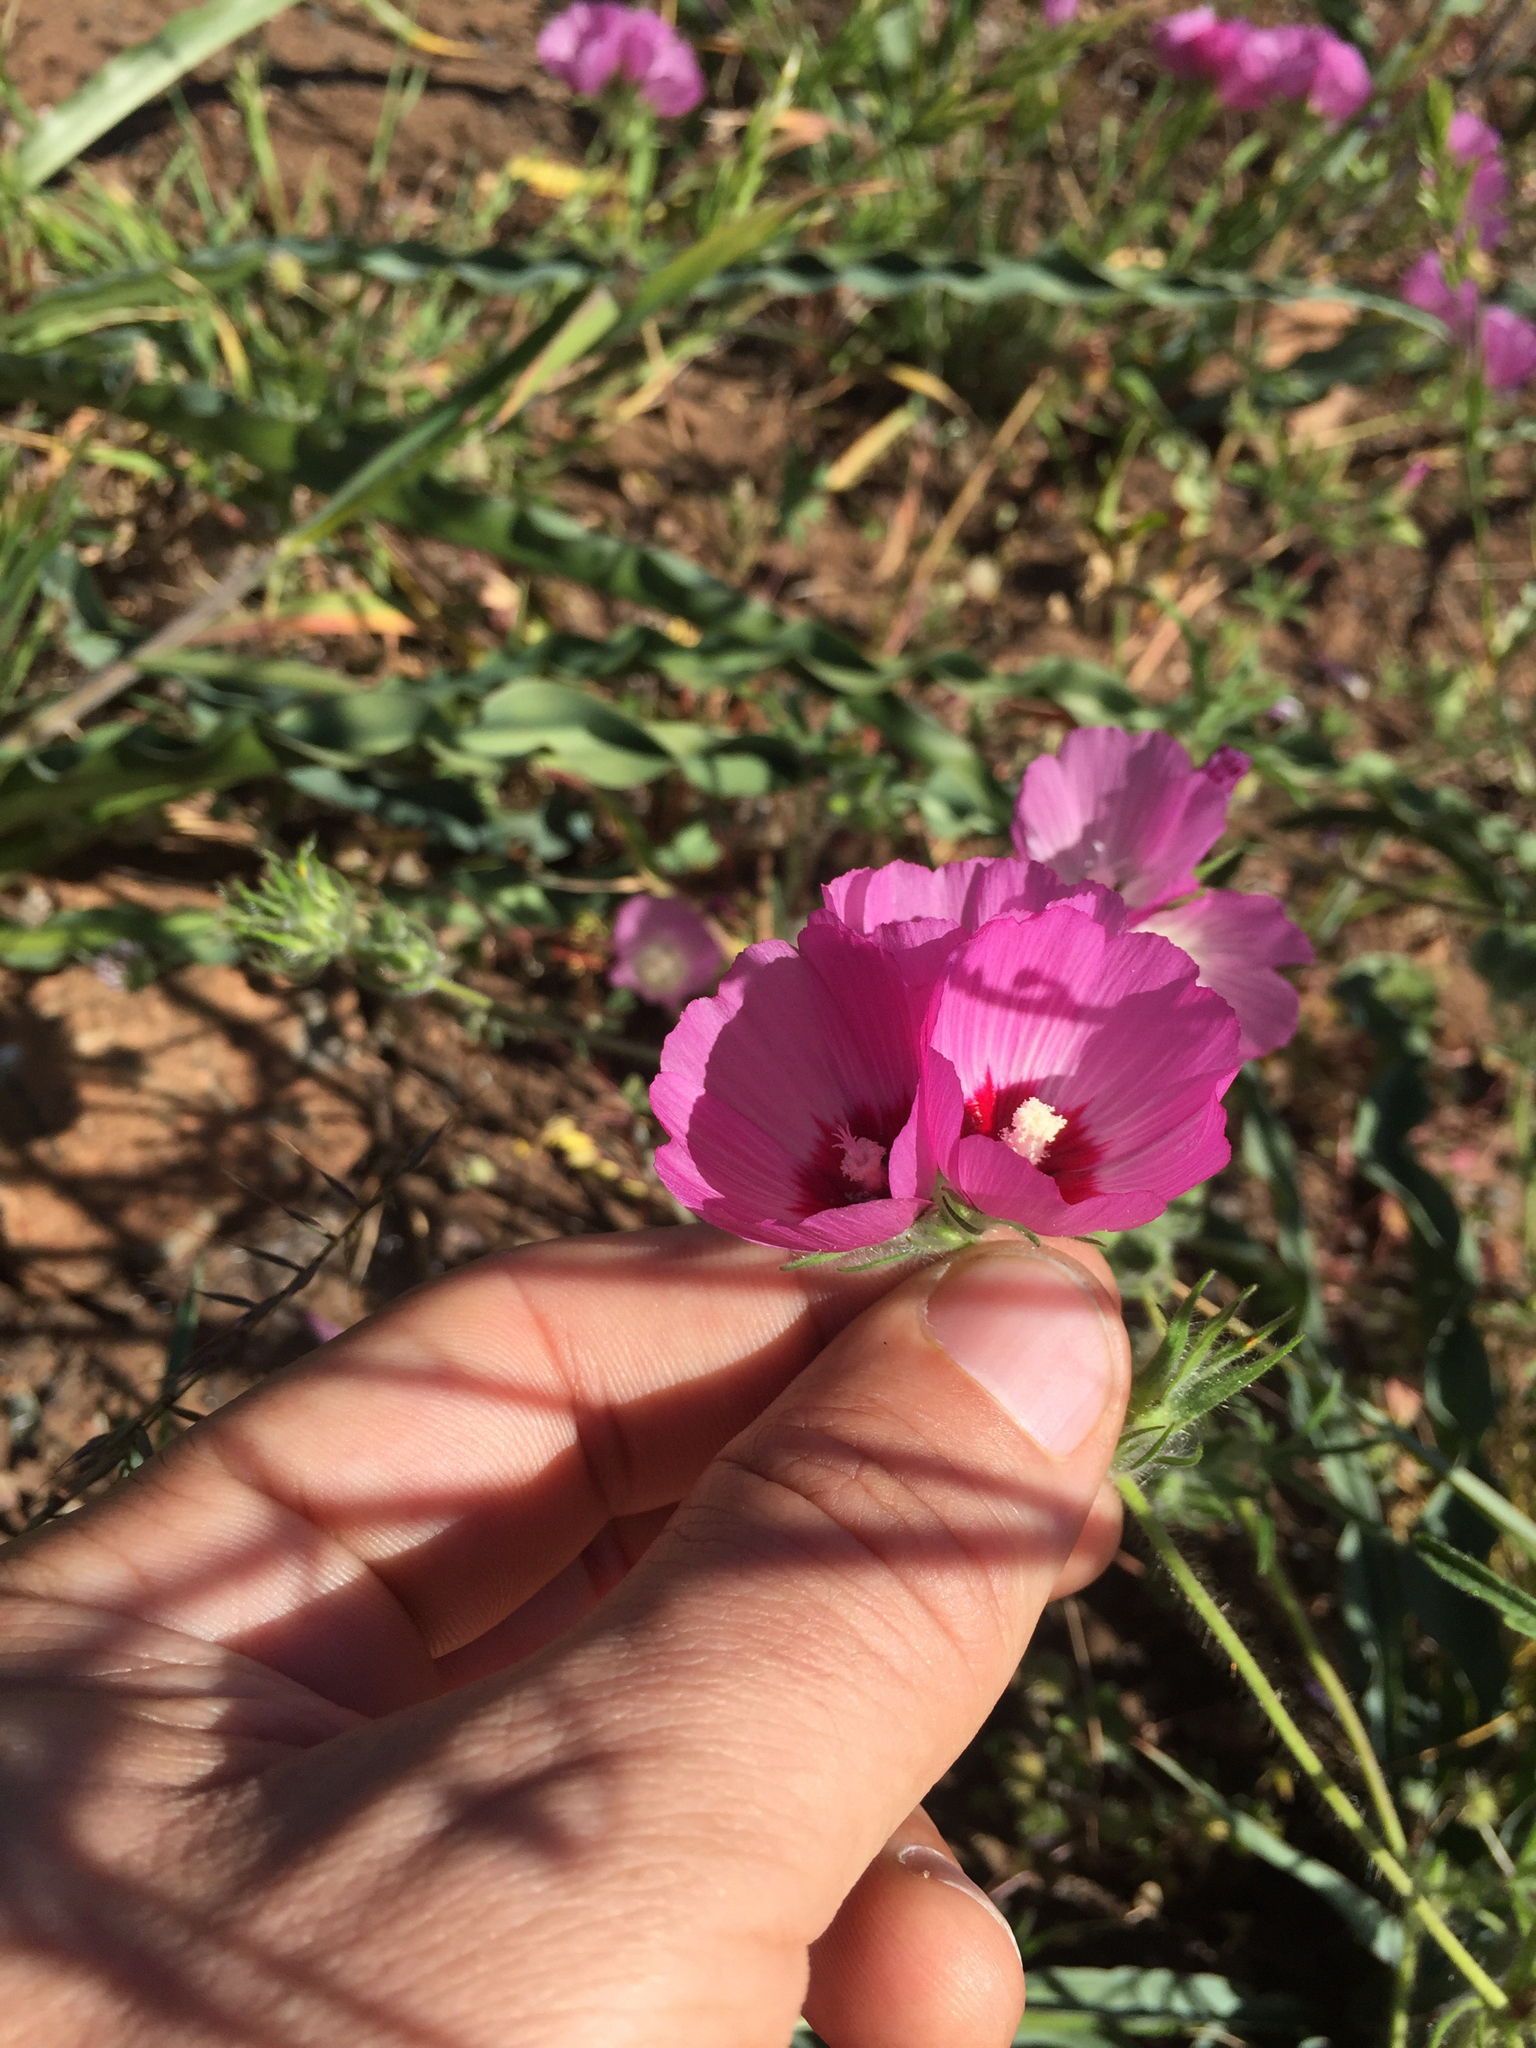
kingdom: Plantae
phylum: Tracheophyta
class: Magnoliopsida
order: Malvales
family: Malvaceae
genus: Sidalcea
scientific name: Sidalcea diploscypha
